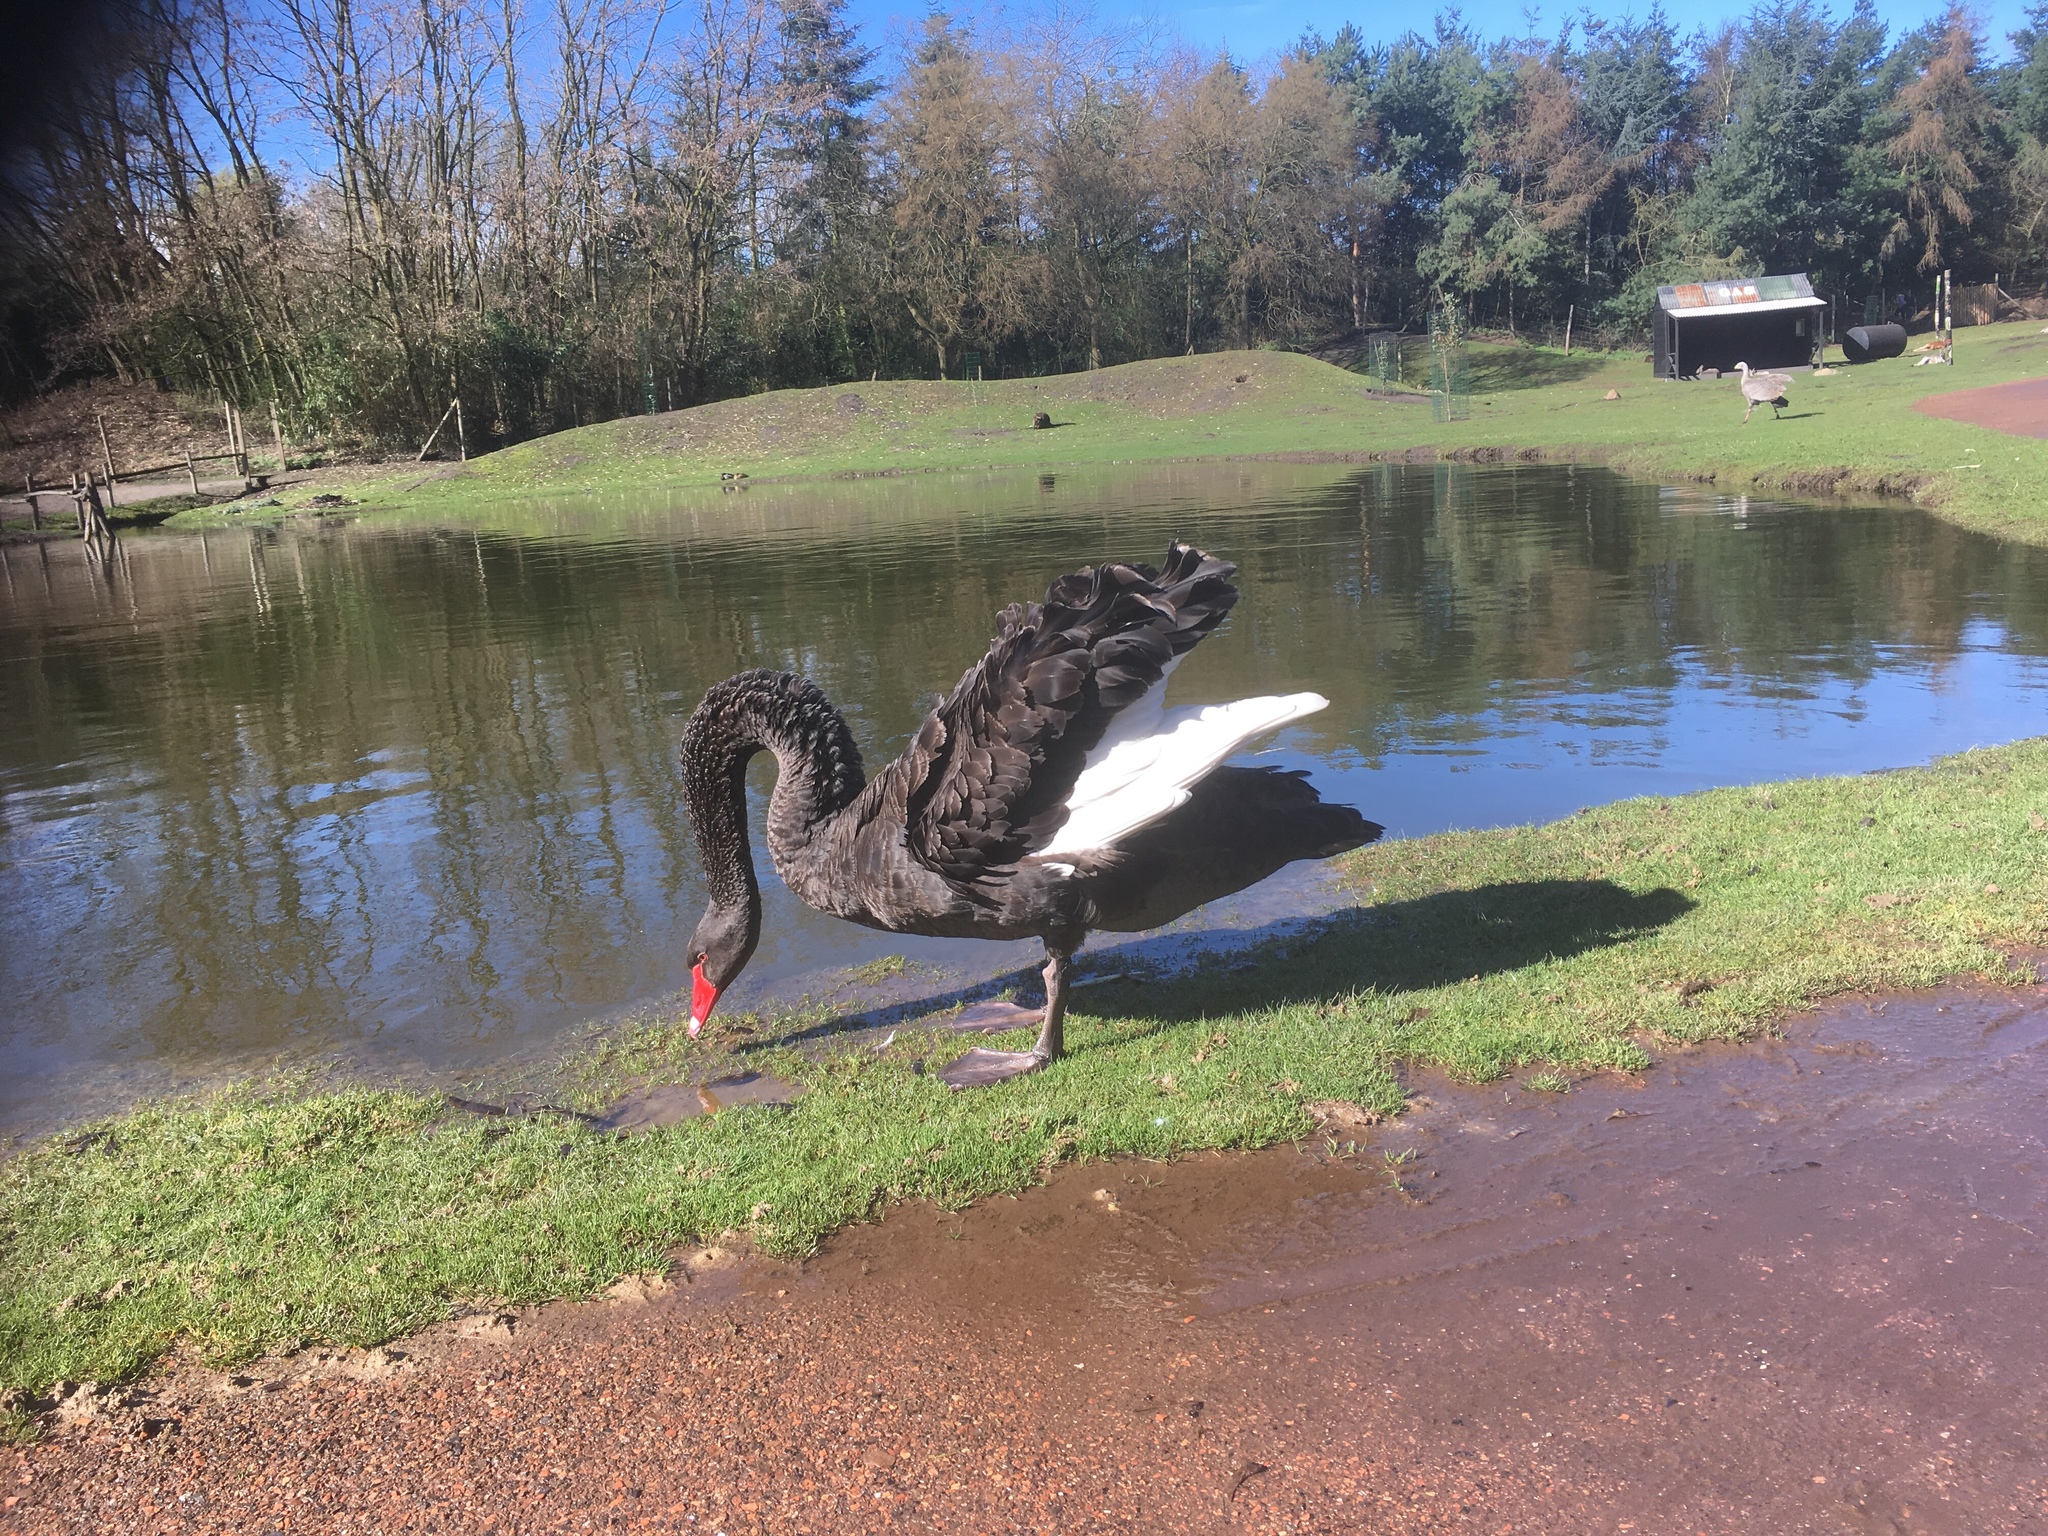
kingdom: Animalia
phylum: Chordata
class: Aves
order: Anseriformes
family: Anatidae
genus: Cygnus
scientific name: Cygnus atratus
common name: Black swan
